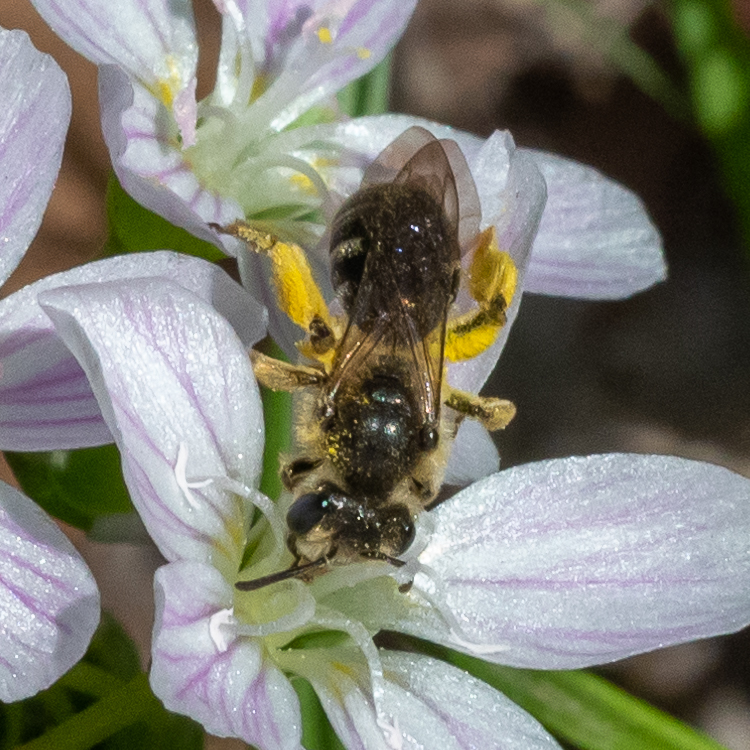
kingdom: Animalia
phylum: Arthropoda
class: Insecta
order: Hymenoptera
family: Andrenidae
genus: Andrena
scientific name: Andrena
